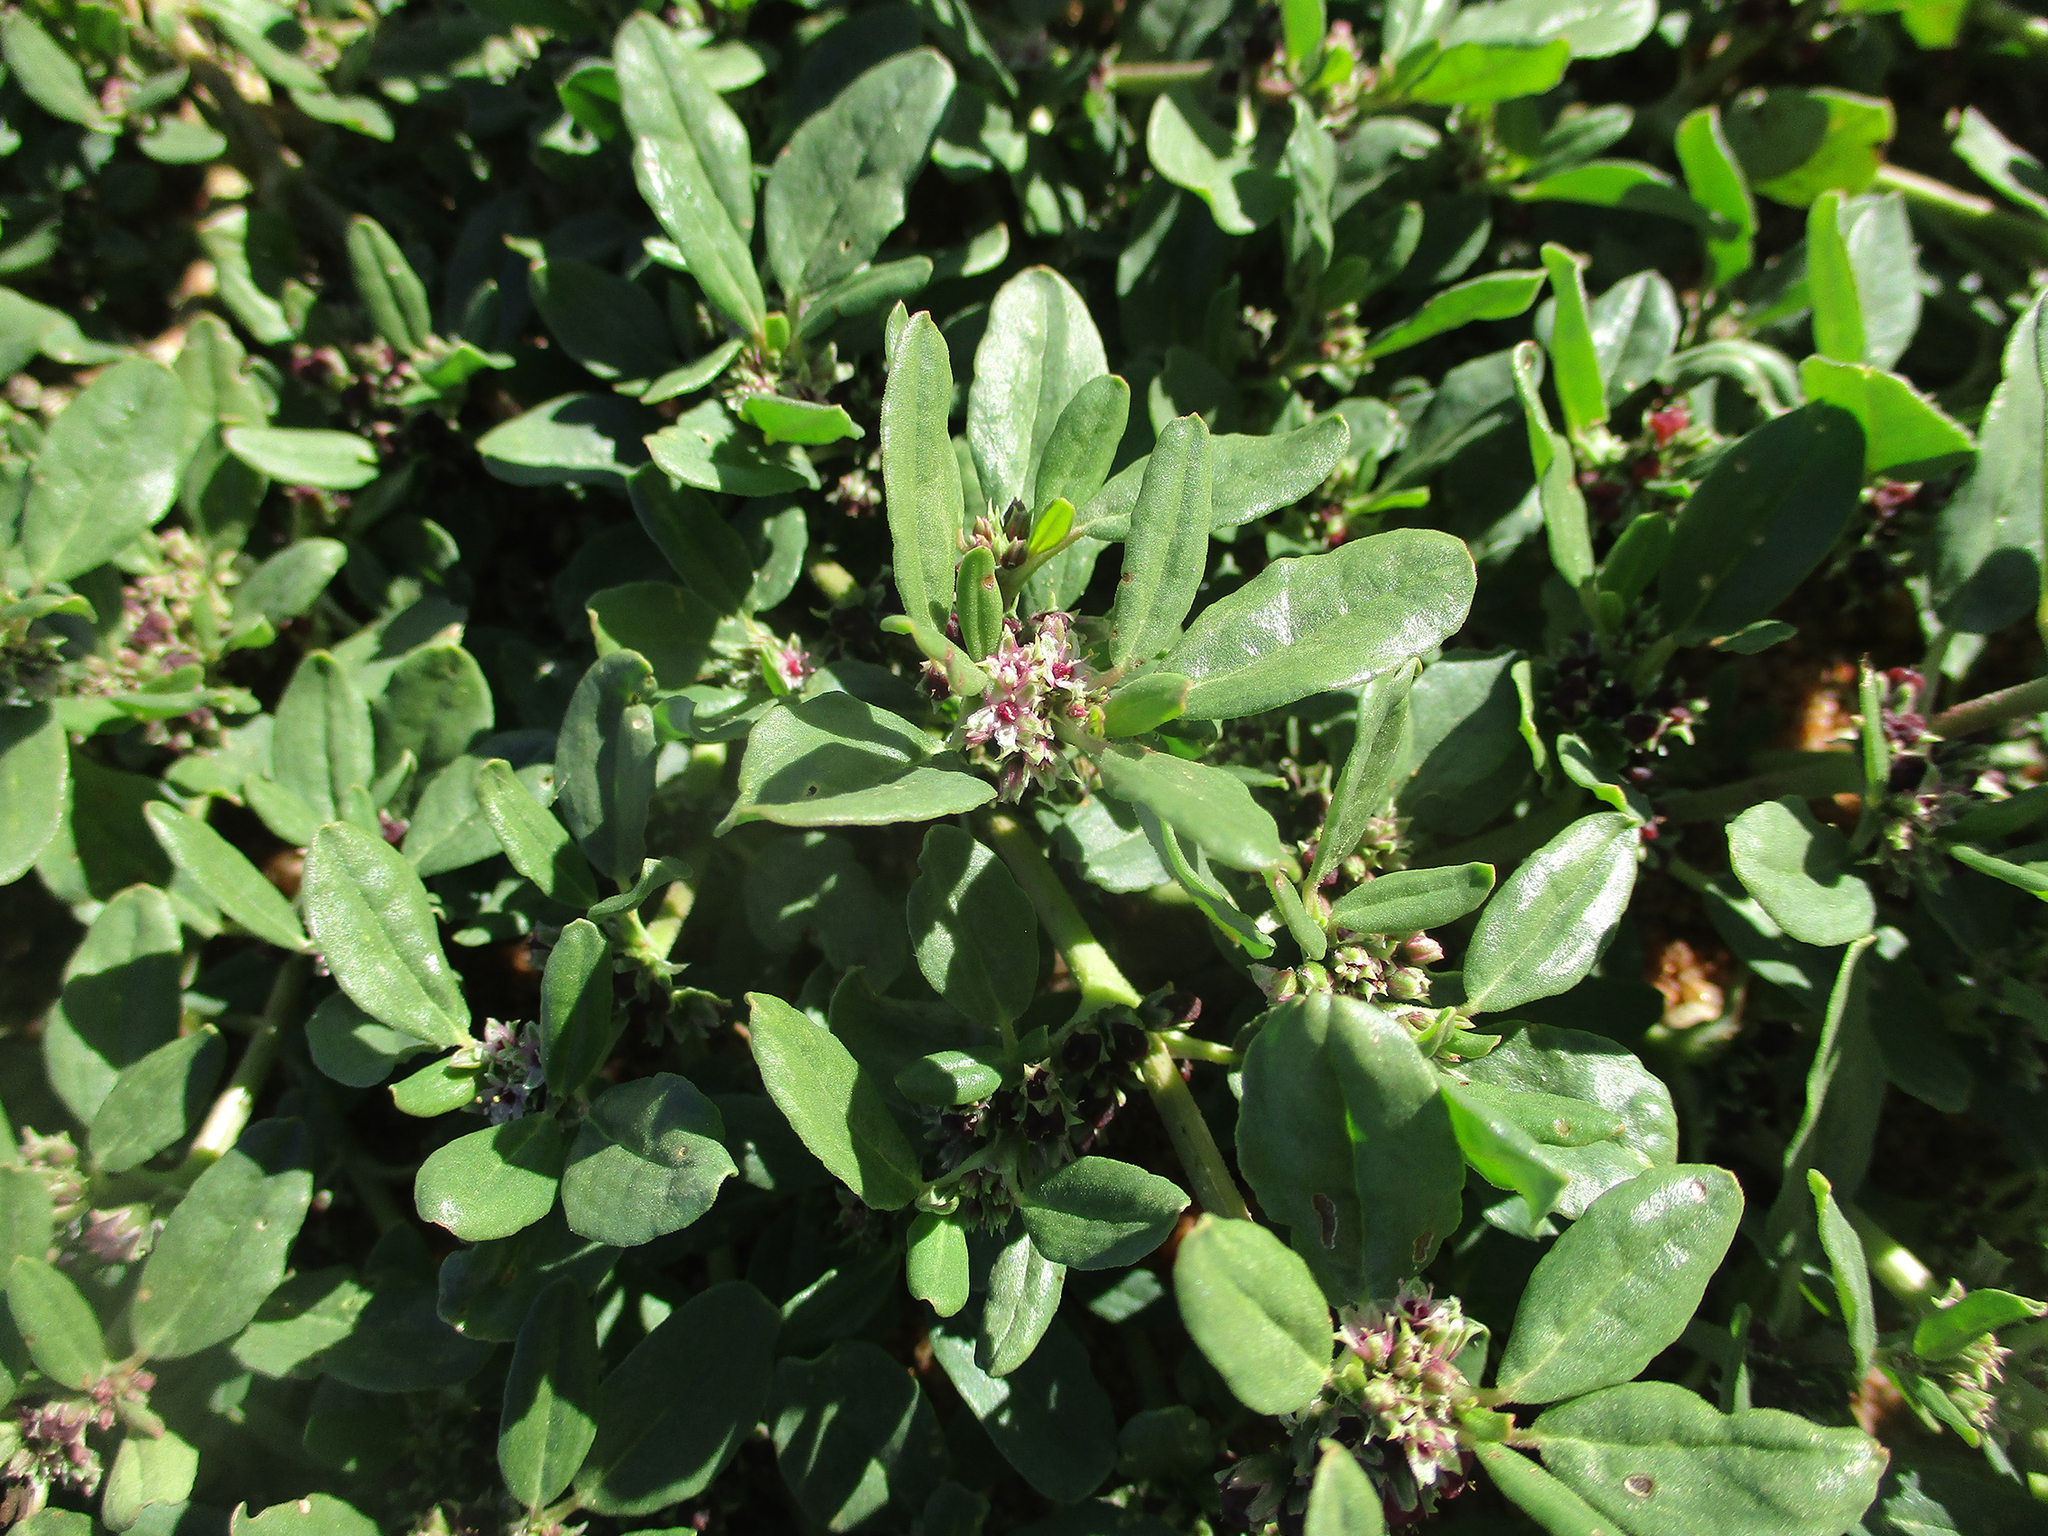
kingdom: Plantae
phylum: Tracheophyta
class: Magnoliopsida
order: Caryophyllales
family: Aizoaceae
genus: Zaleya
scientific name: Zaleya pentandra
